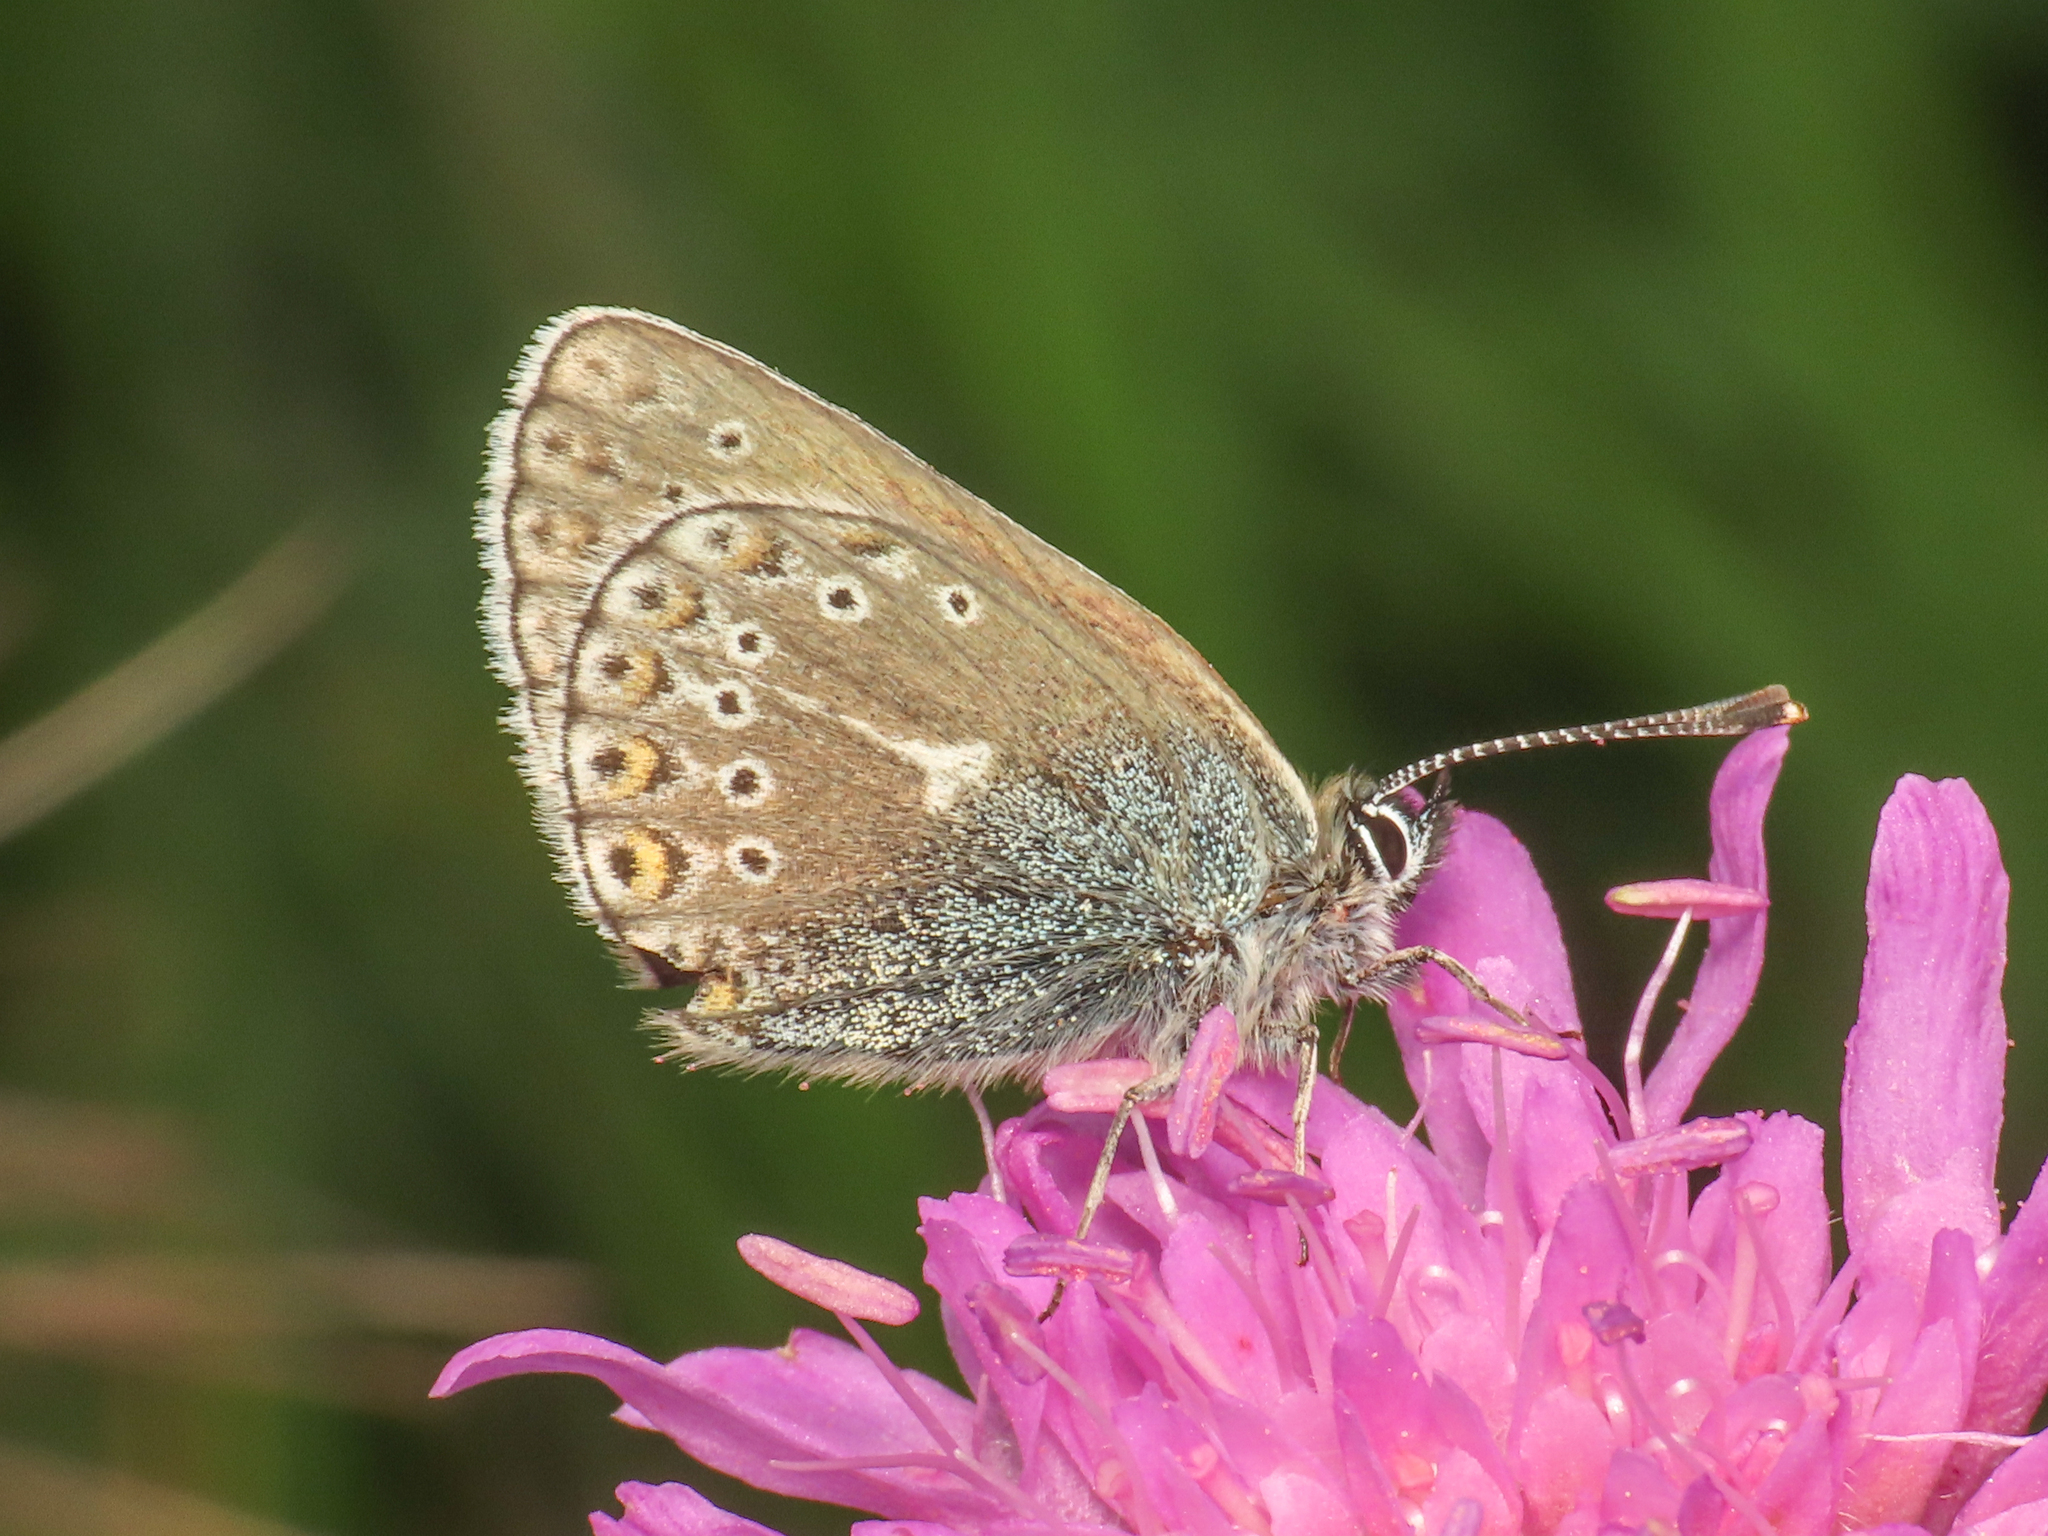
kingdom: Animalia
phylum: Arthropoda
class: Insecta
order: Lepidoptera
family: Lycaenidae
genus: Eumedonia
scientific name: Eumedonia eumedon
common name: Geranium argus
